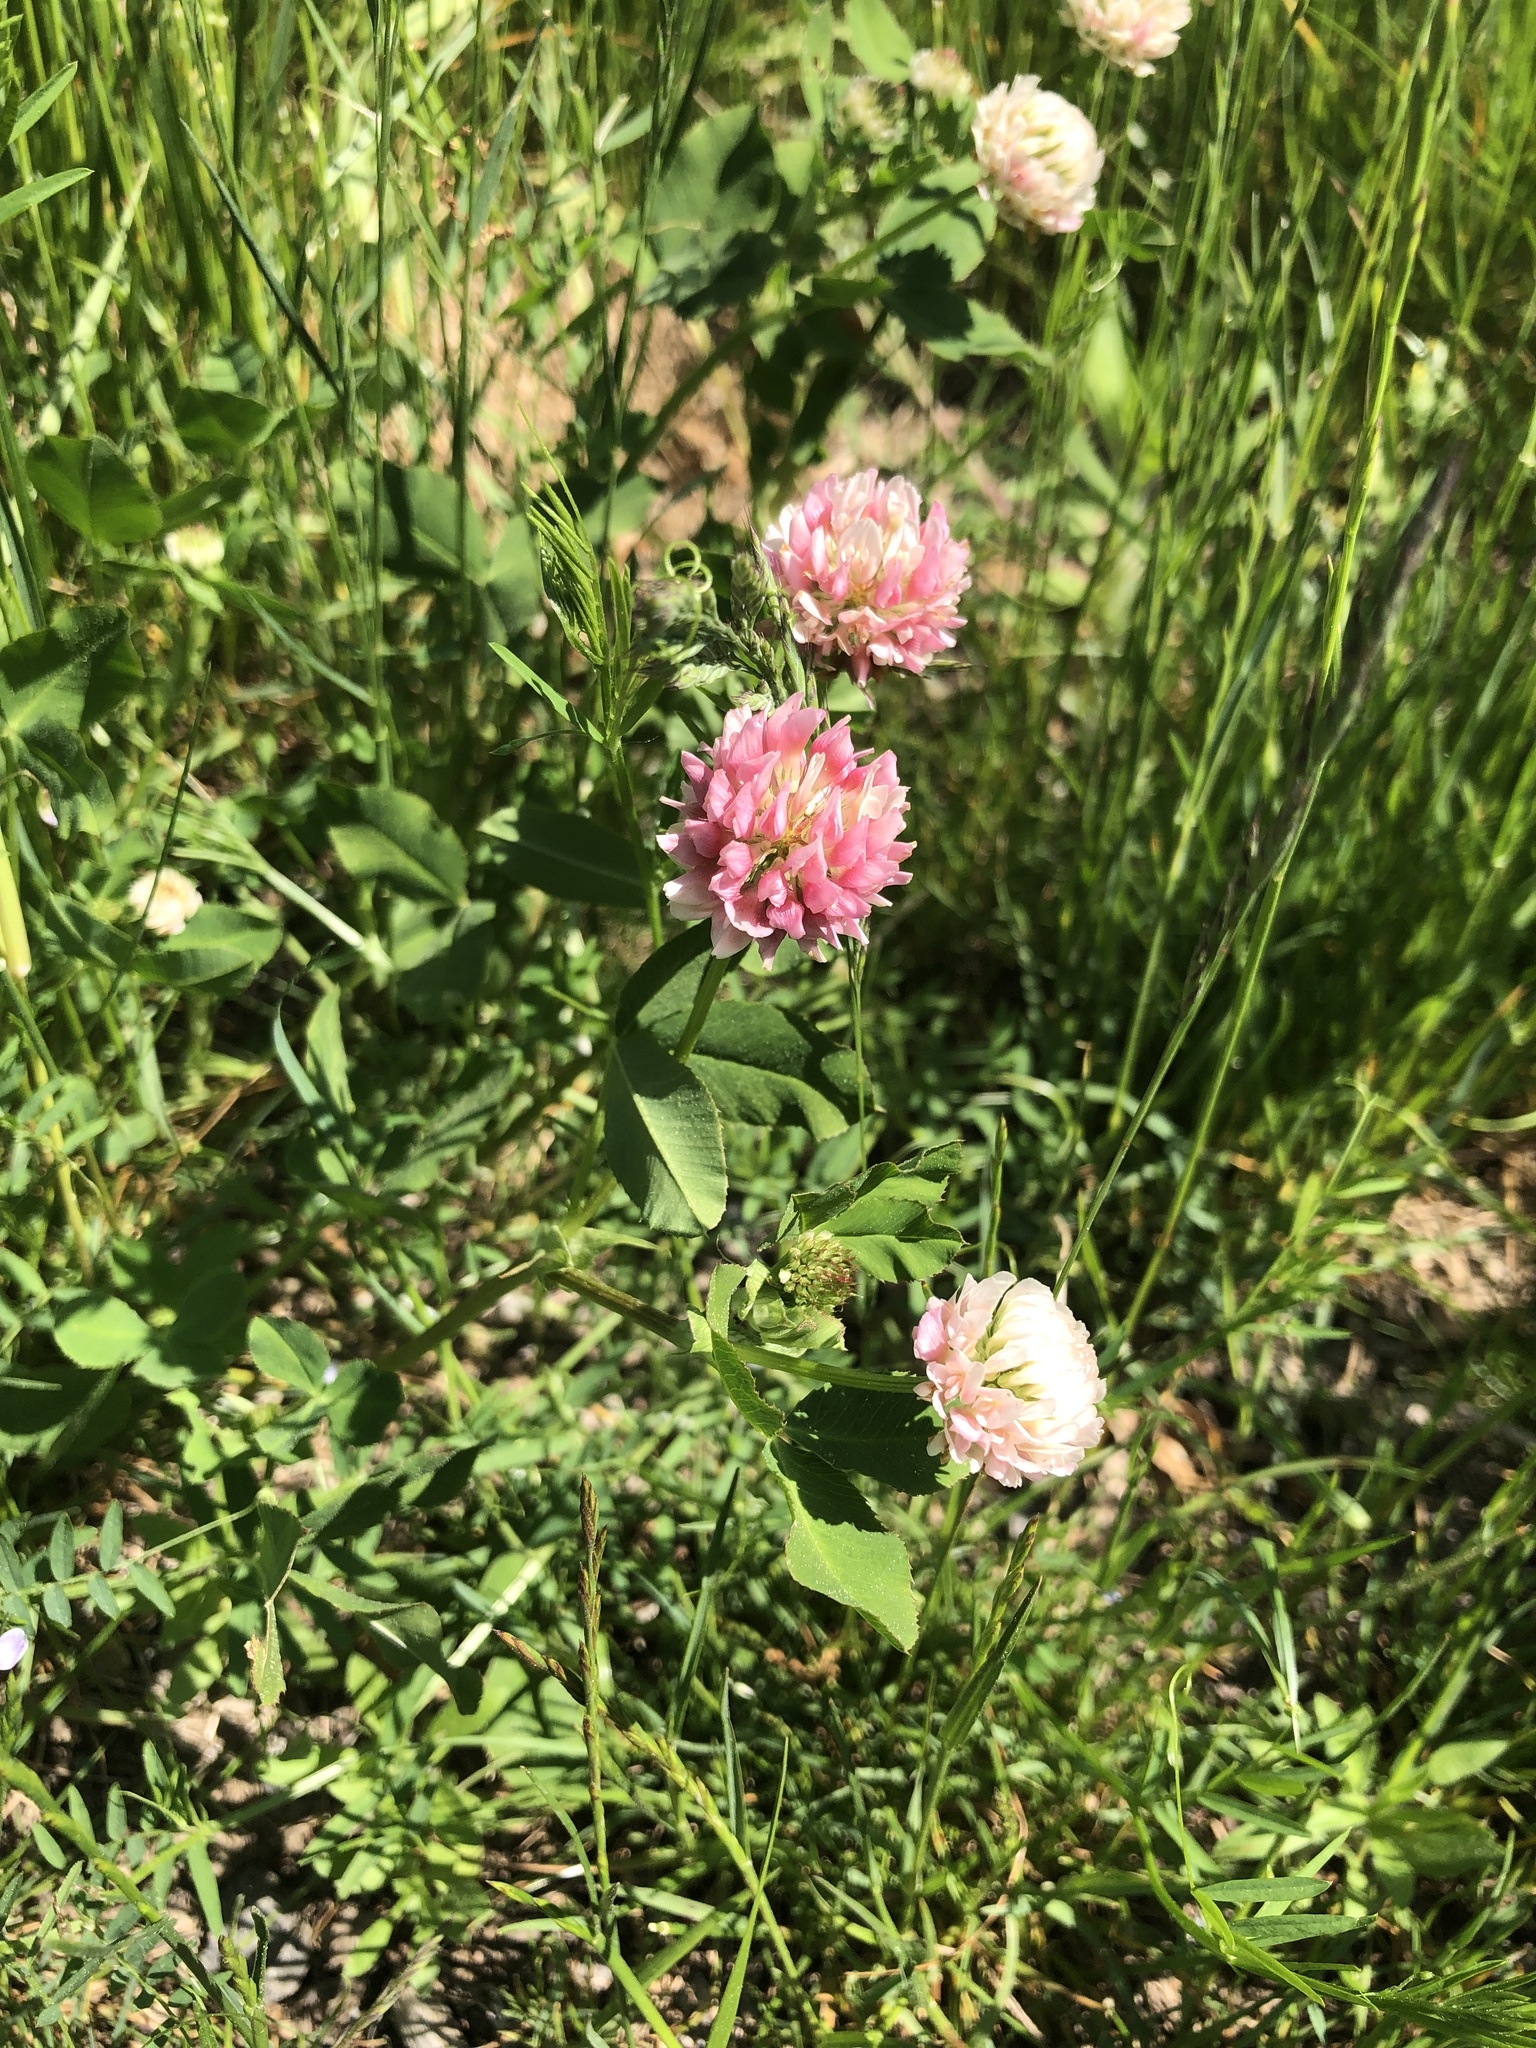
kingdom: Plantae
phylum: Tracheophyta
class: Magnoliopsida
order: Fabales
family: Fabaceae
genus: Trifolium
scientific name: Trifolium hybridum
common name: Alsike clover
